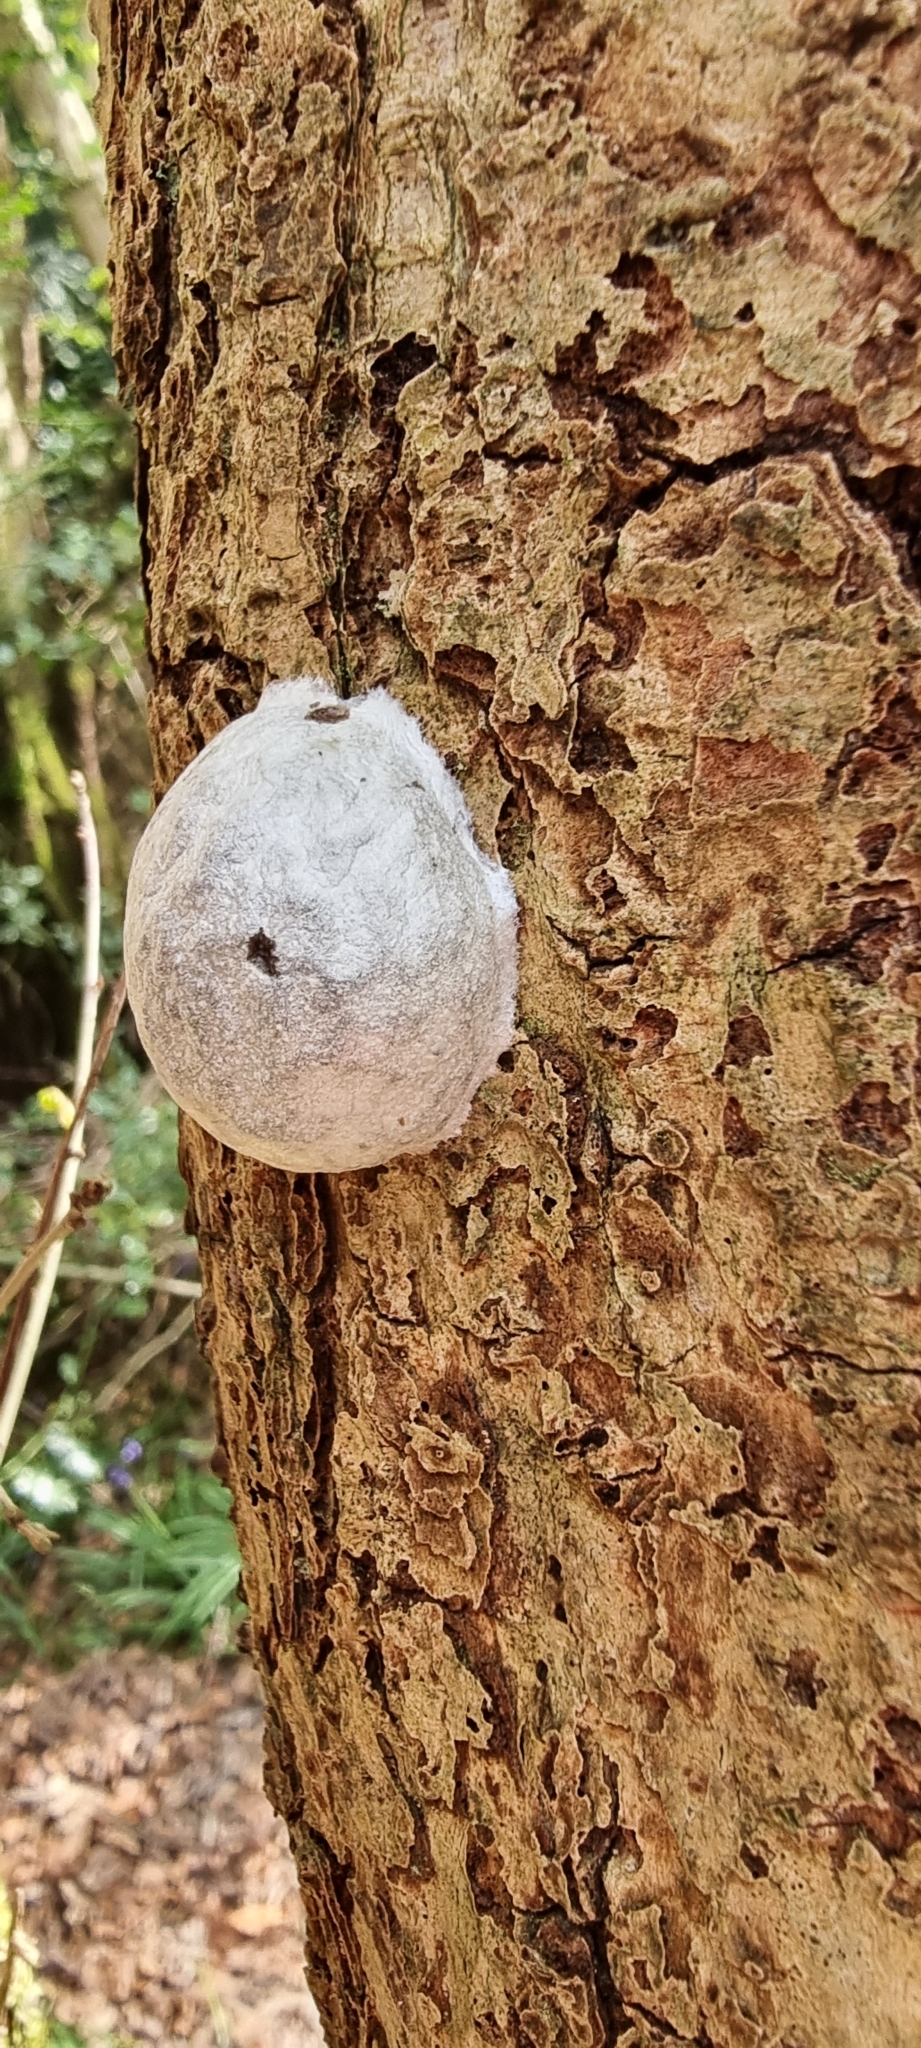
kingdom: Protozoa
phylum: Mycetozoa
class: Myxomycetes
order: Cribrariales
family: Tubiferaceae
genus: Reticularia
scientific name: Reticularia lycoperdon
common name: False puffball
